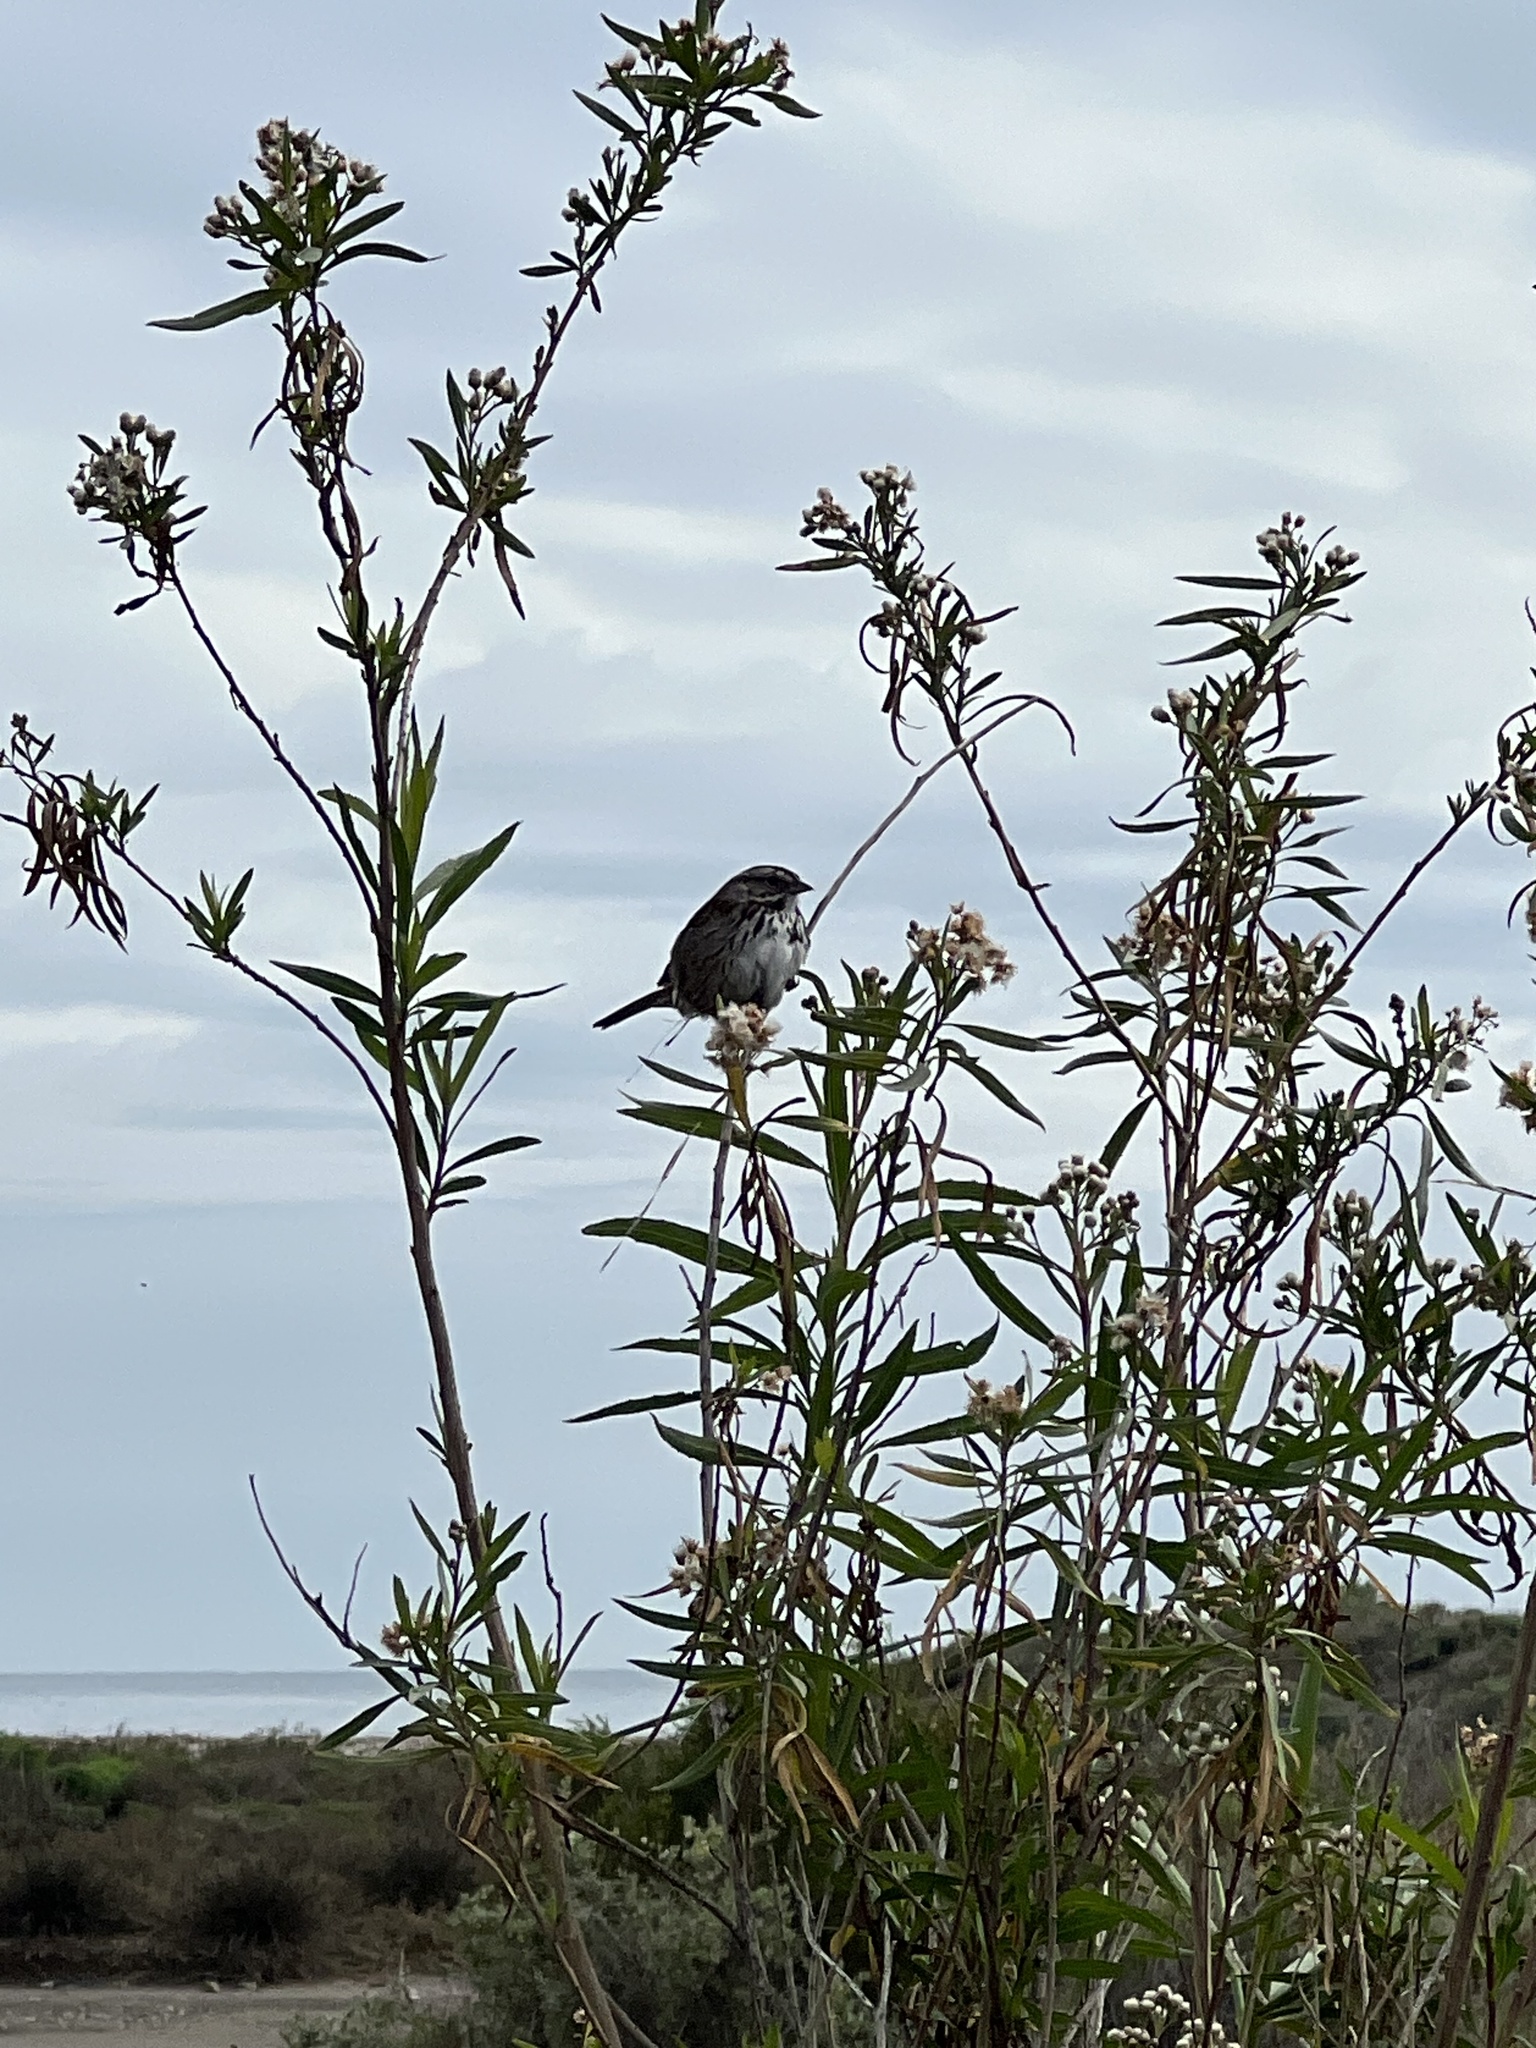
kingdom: Animalia
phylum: Chordata
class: Aves
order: Passeriformes
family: Passerellidae
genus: Melospiza
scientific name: Melospiza melodia
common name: Song sparrow
